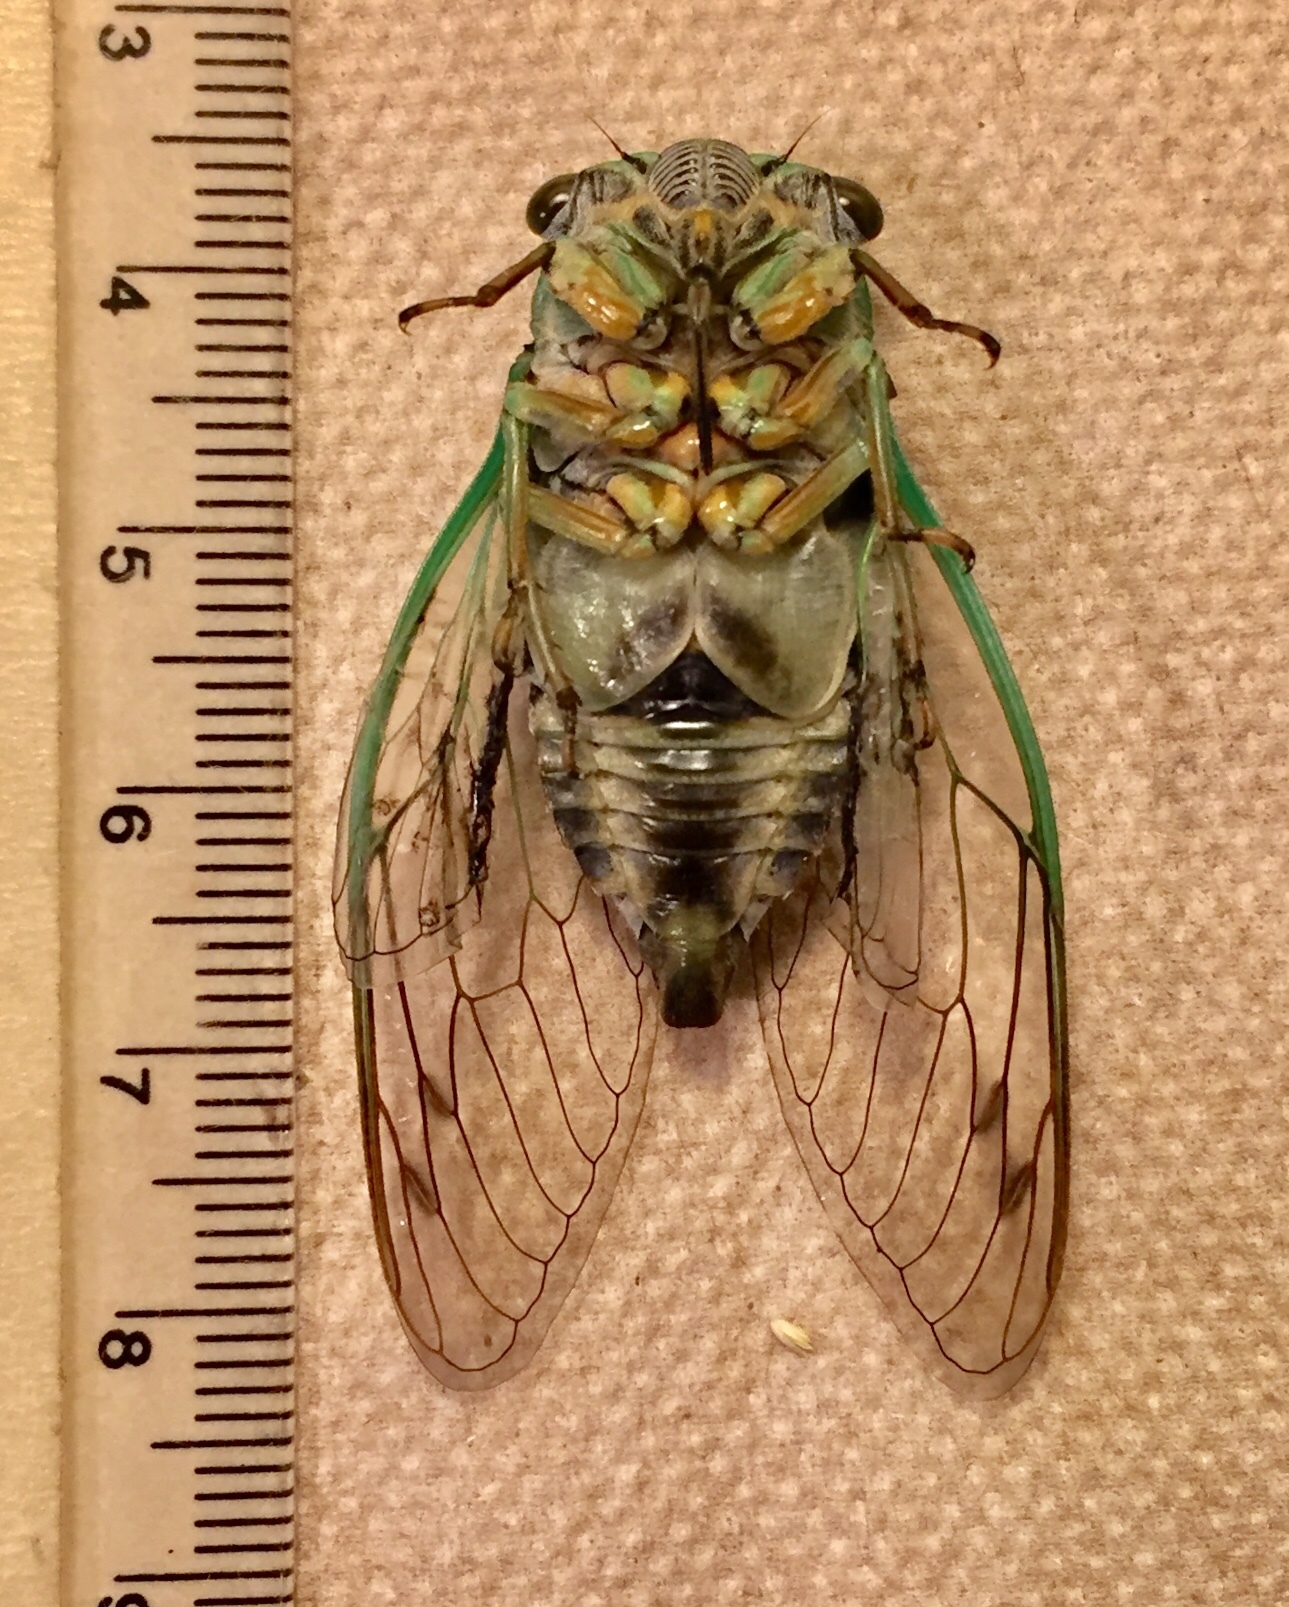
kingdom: Animalia
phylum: Arthropoda
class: Insecta
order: Hemiptera
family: Cicadidae
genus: Neotibicen
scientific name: Neotibicen linnei
